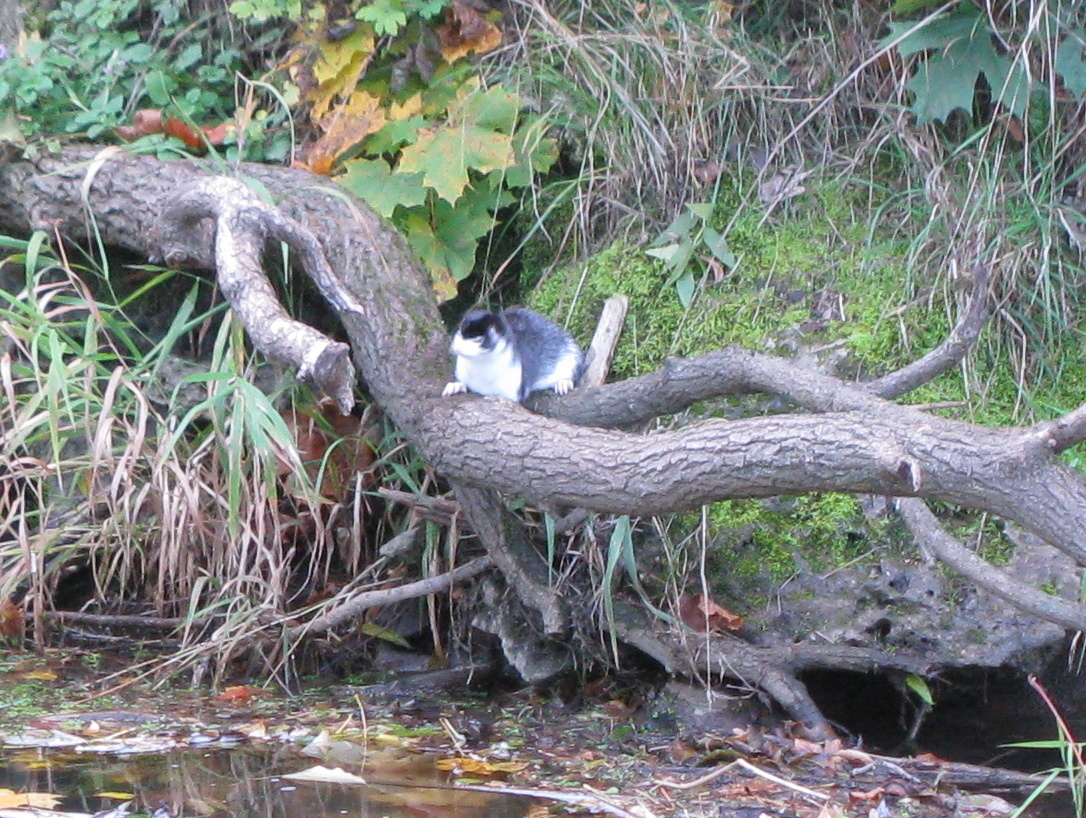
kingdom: Animalia
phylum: Chordata
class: Mammalia
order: Carnivora
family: Mustelidae
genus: Mustela
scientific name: Mustela
